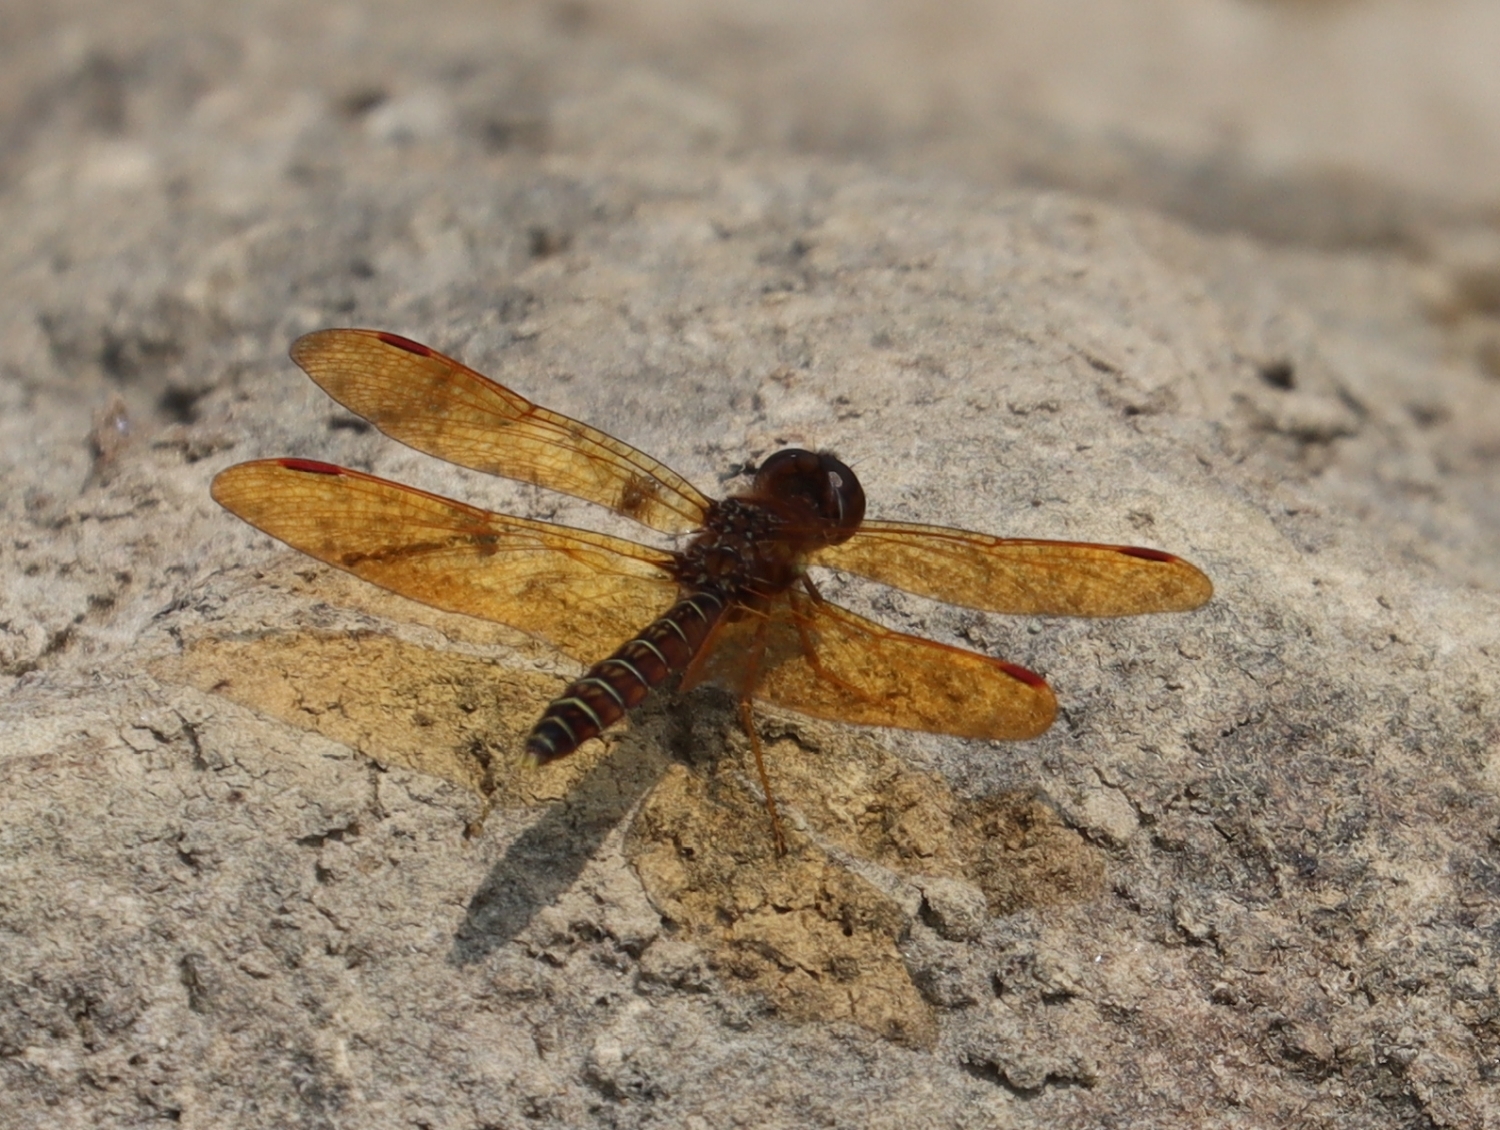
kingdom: Animalia
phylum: Arthropoda
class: Insecta
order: Odonata
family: Libellulidae
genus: Perithemis
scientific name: Perithemis tenera
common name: Eastern amberwing
